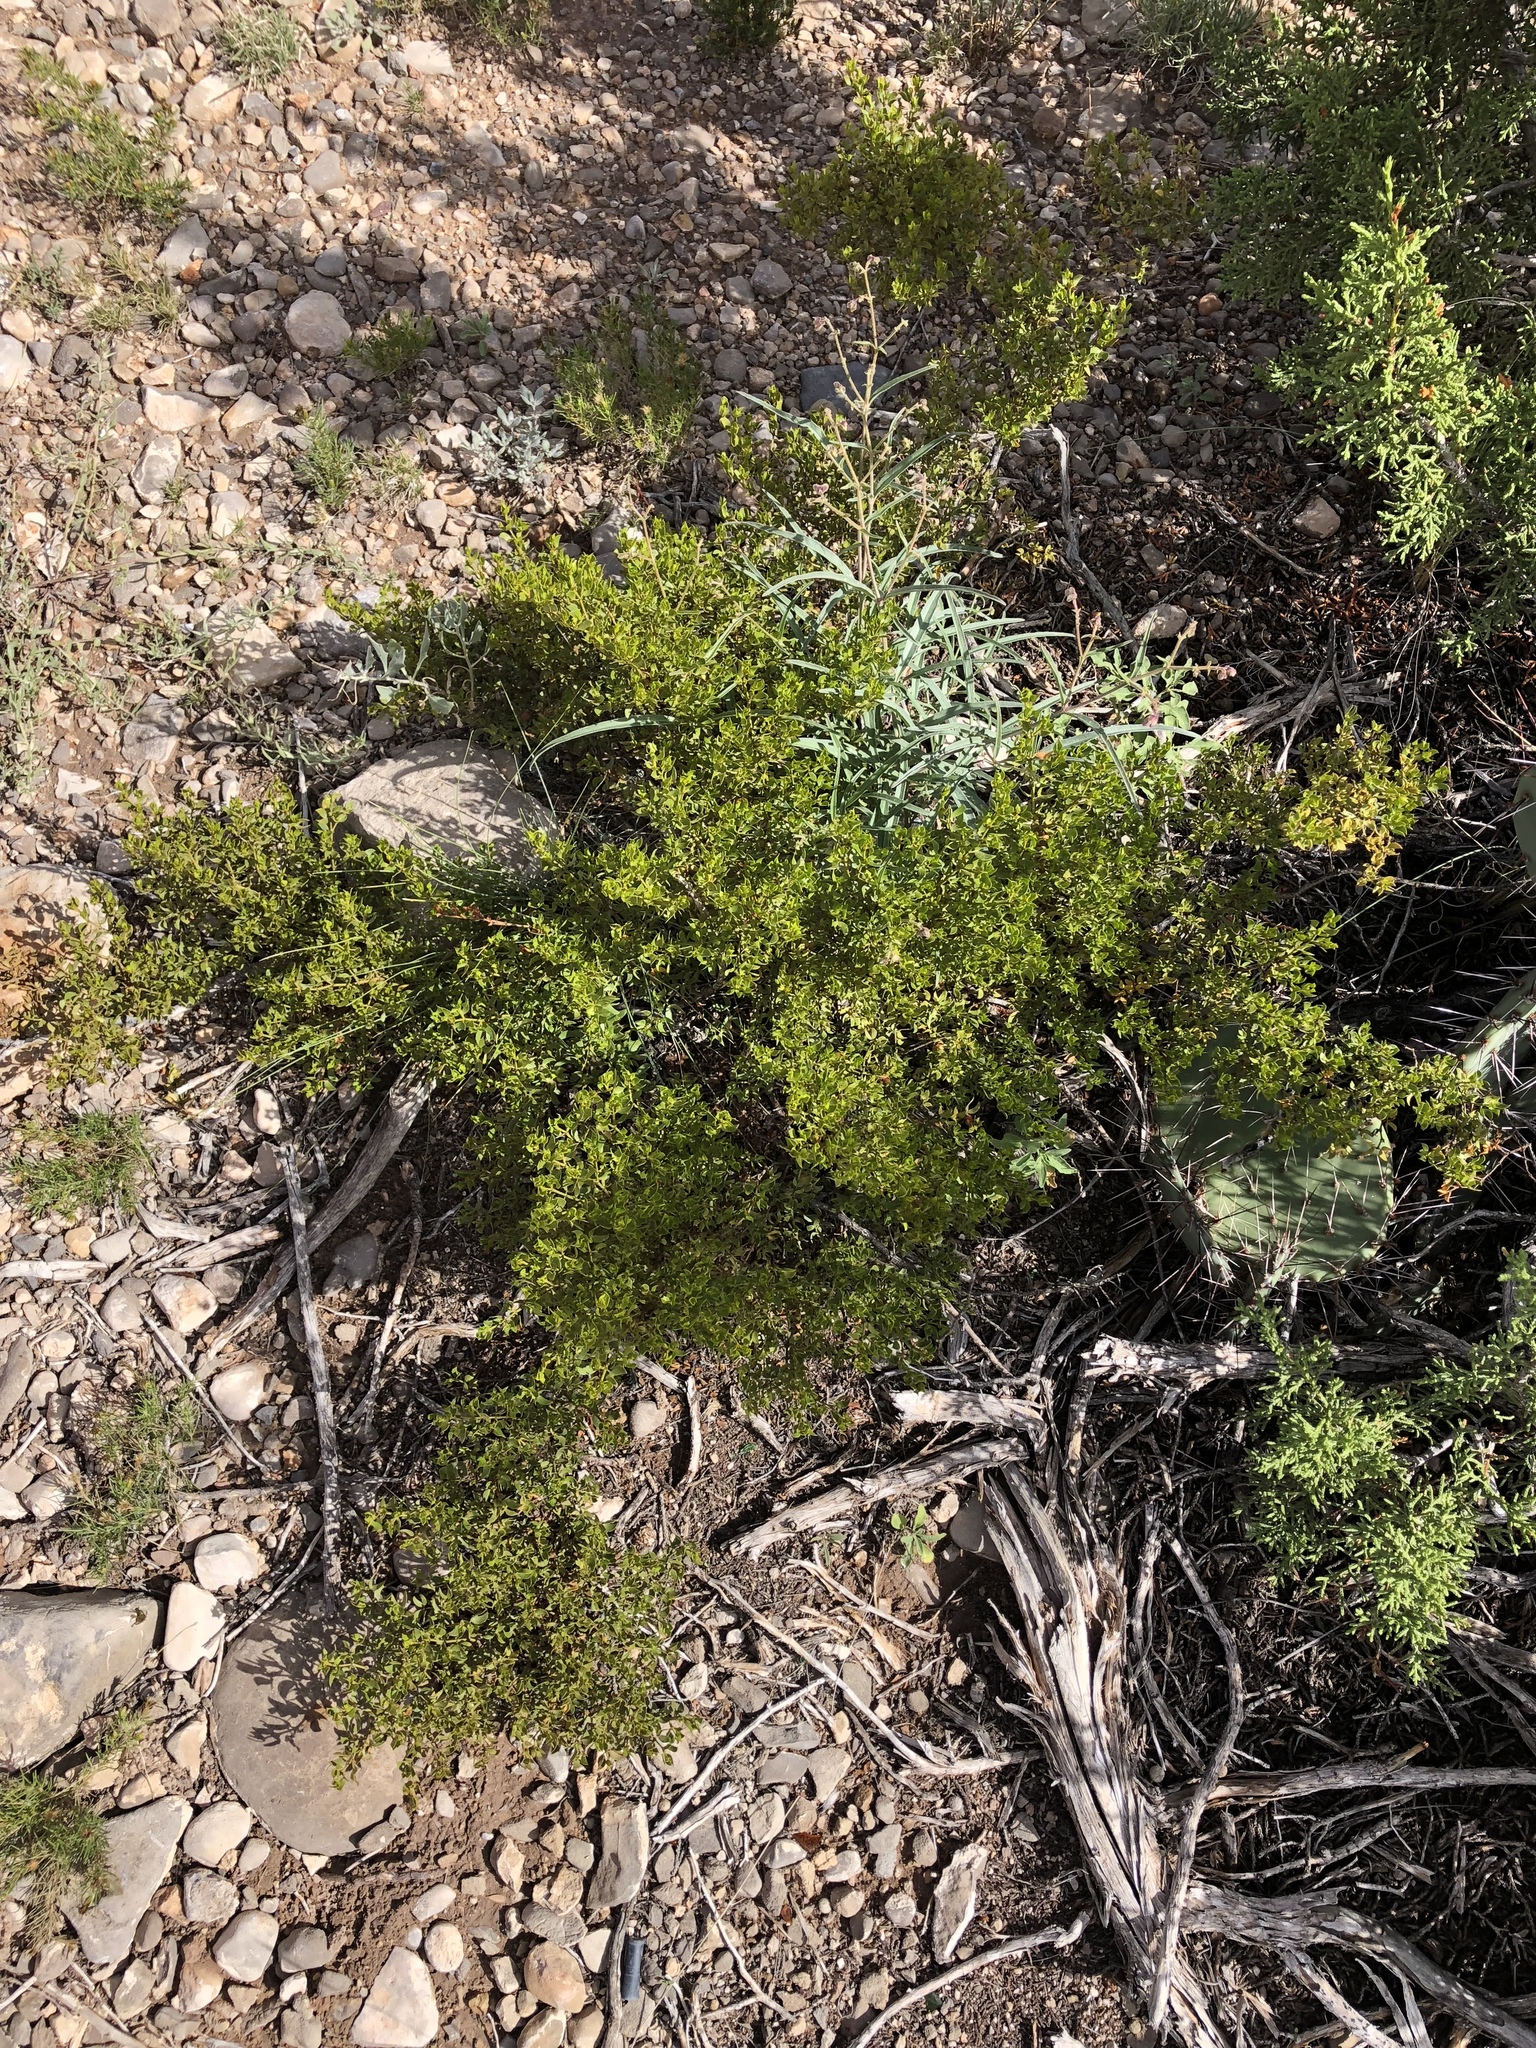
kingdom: Plantae
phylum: Tracheophyta
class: Magnoliopsida
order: Zygophyllales
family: Zygophyllaceae
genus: Larrea
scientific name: Larrea tridentata
